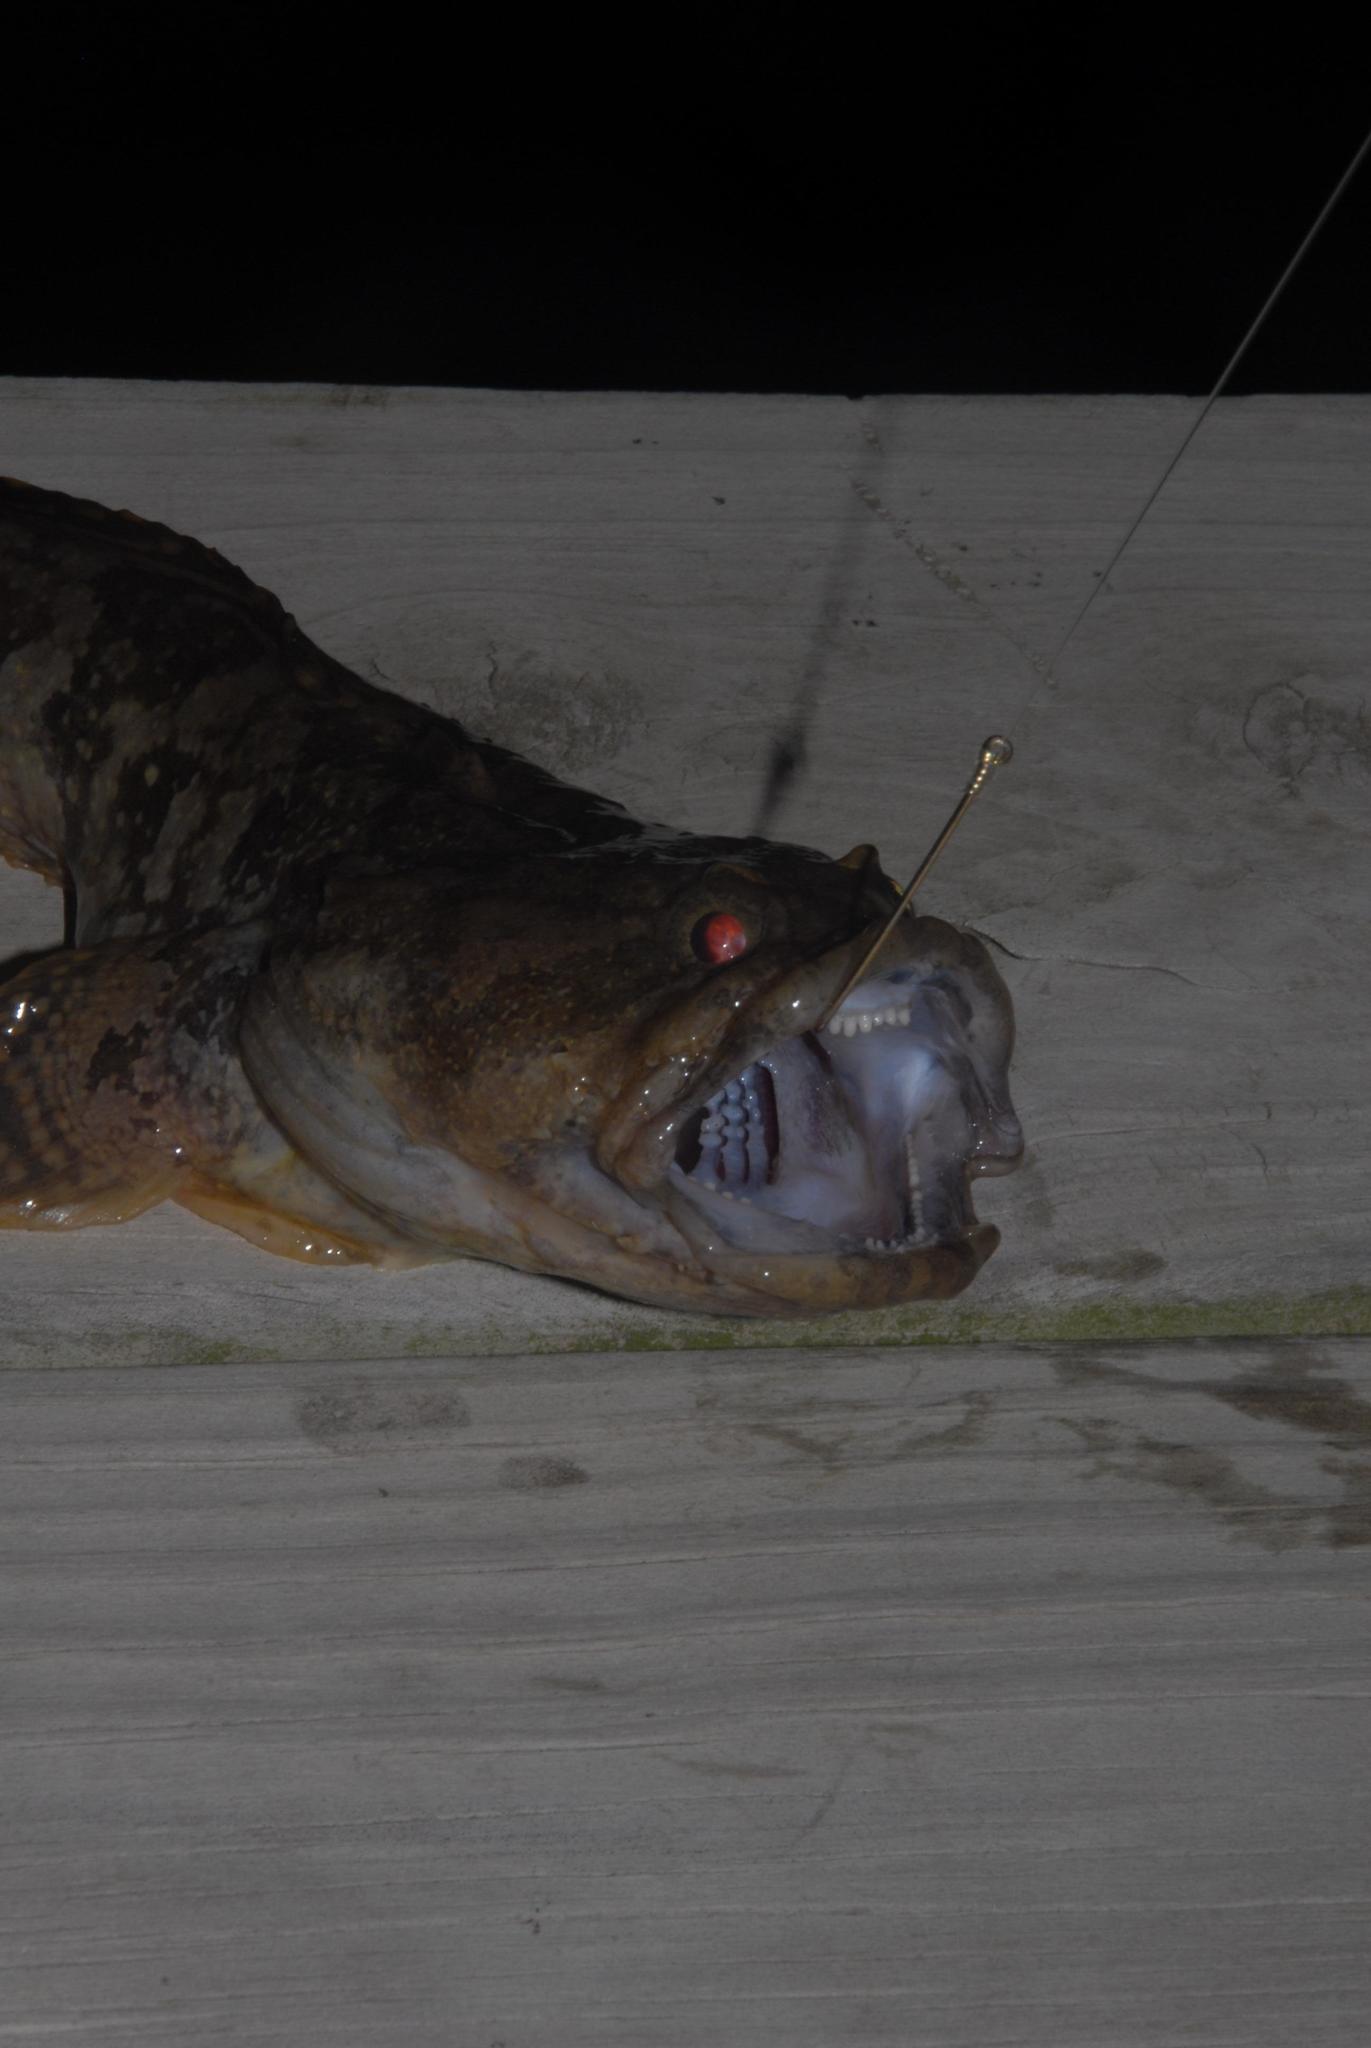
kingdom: Animalia
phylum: Chordata
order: Batrachoidiformes
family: Batrachoididae
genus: Opsanus
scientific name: Opsanus beta
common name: Gulf toadfish
